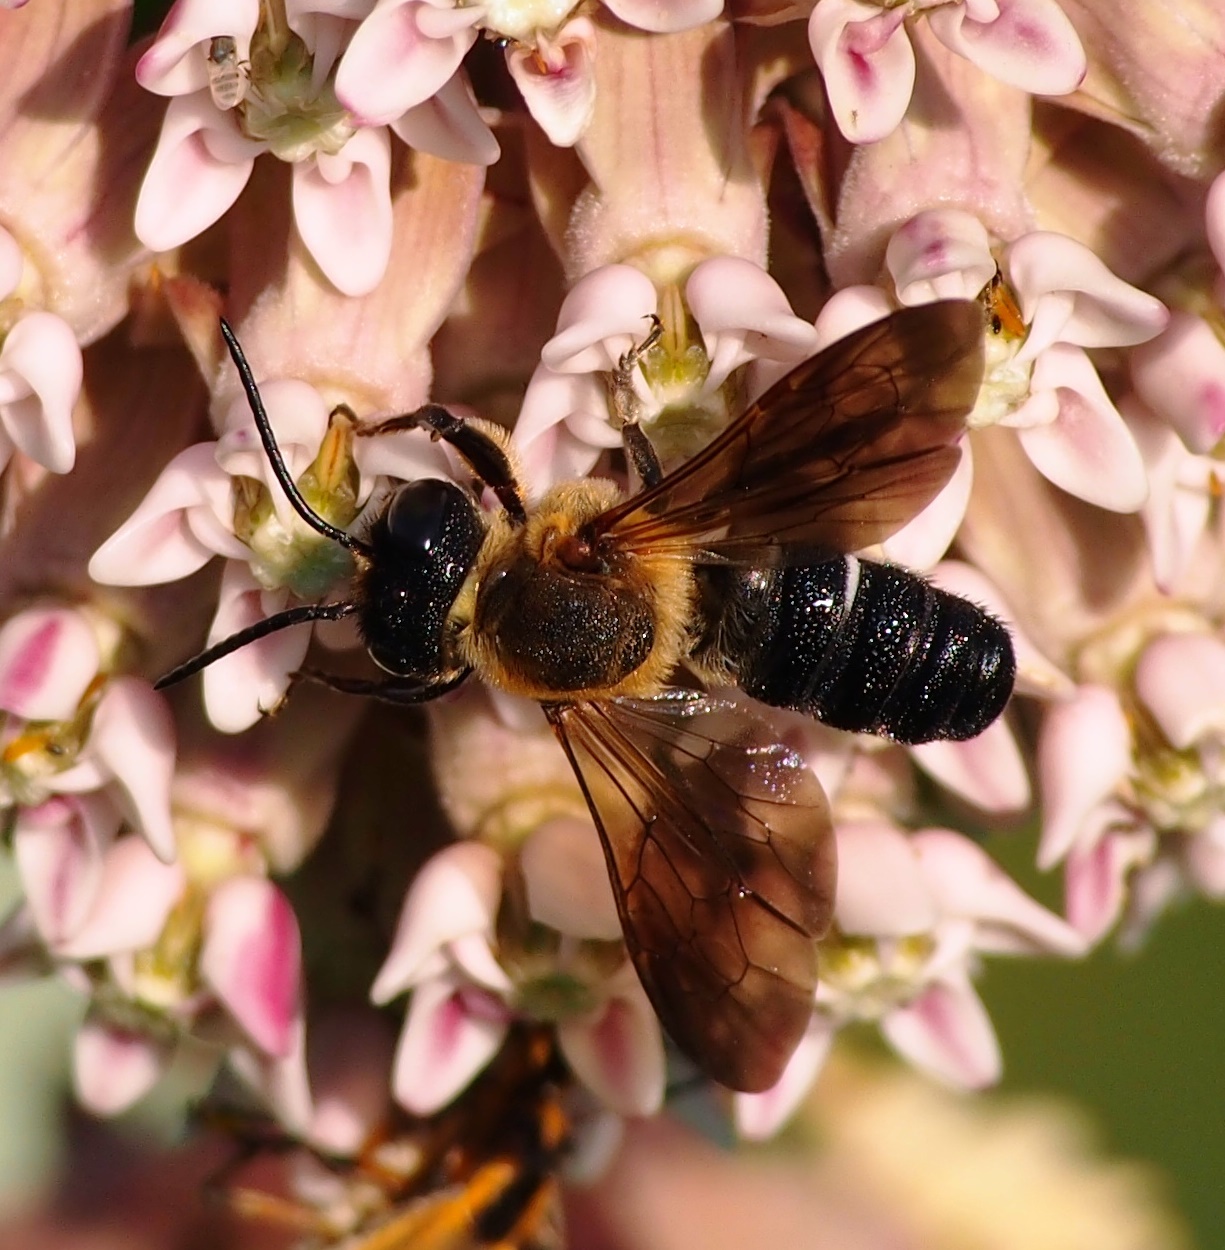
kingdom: Animalia
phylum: Arthropoda
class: Insecta
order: Hymenoptera
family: Megachilidae
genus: Megachile
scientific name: Megachile sculpturalis
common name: Sculptured resin bee
